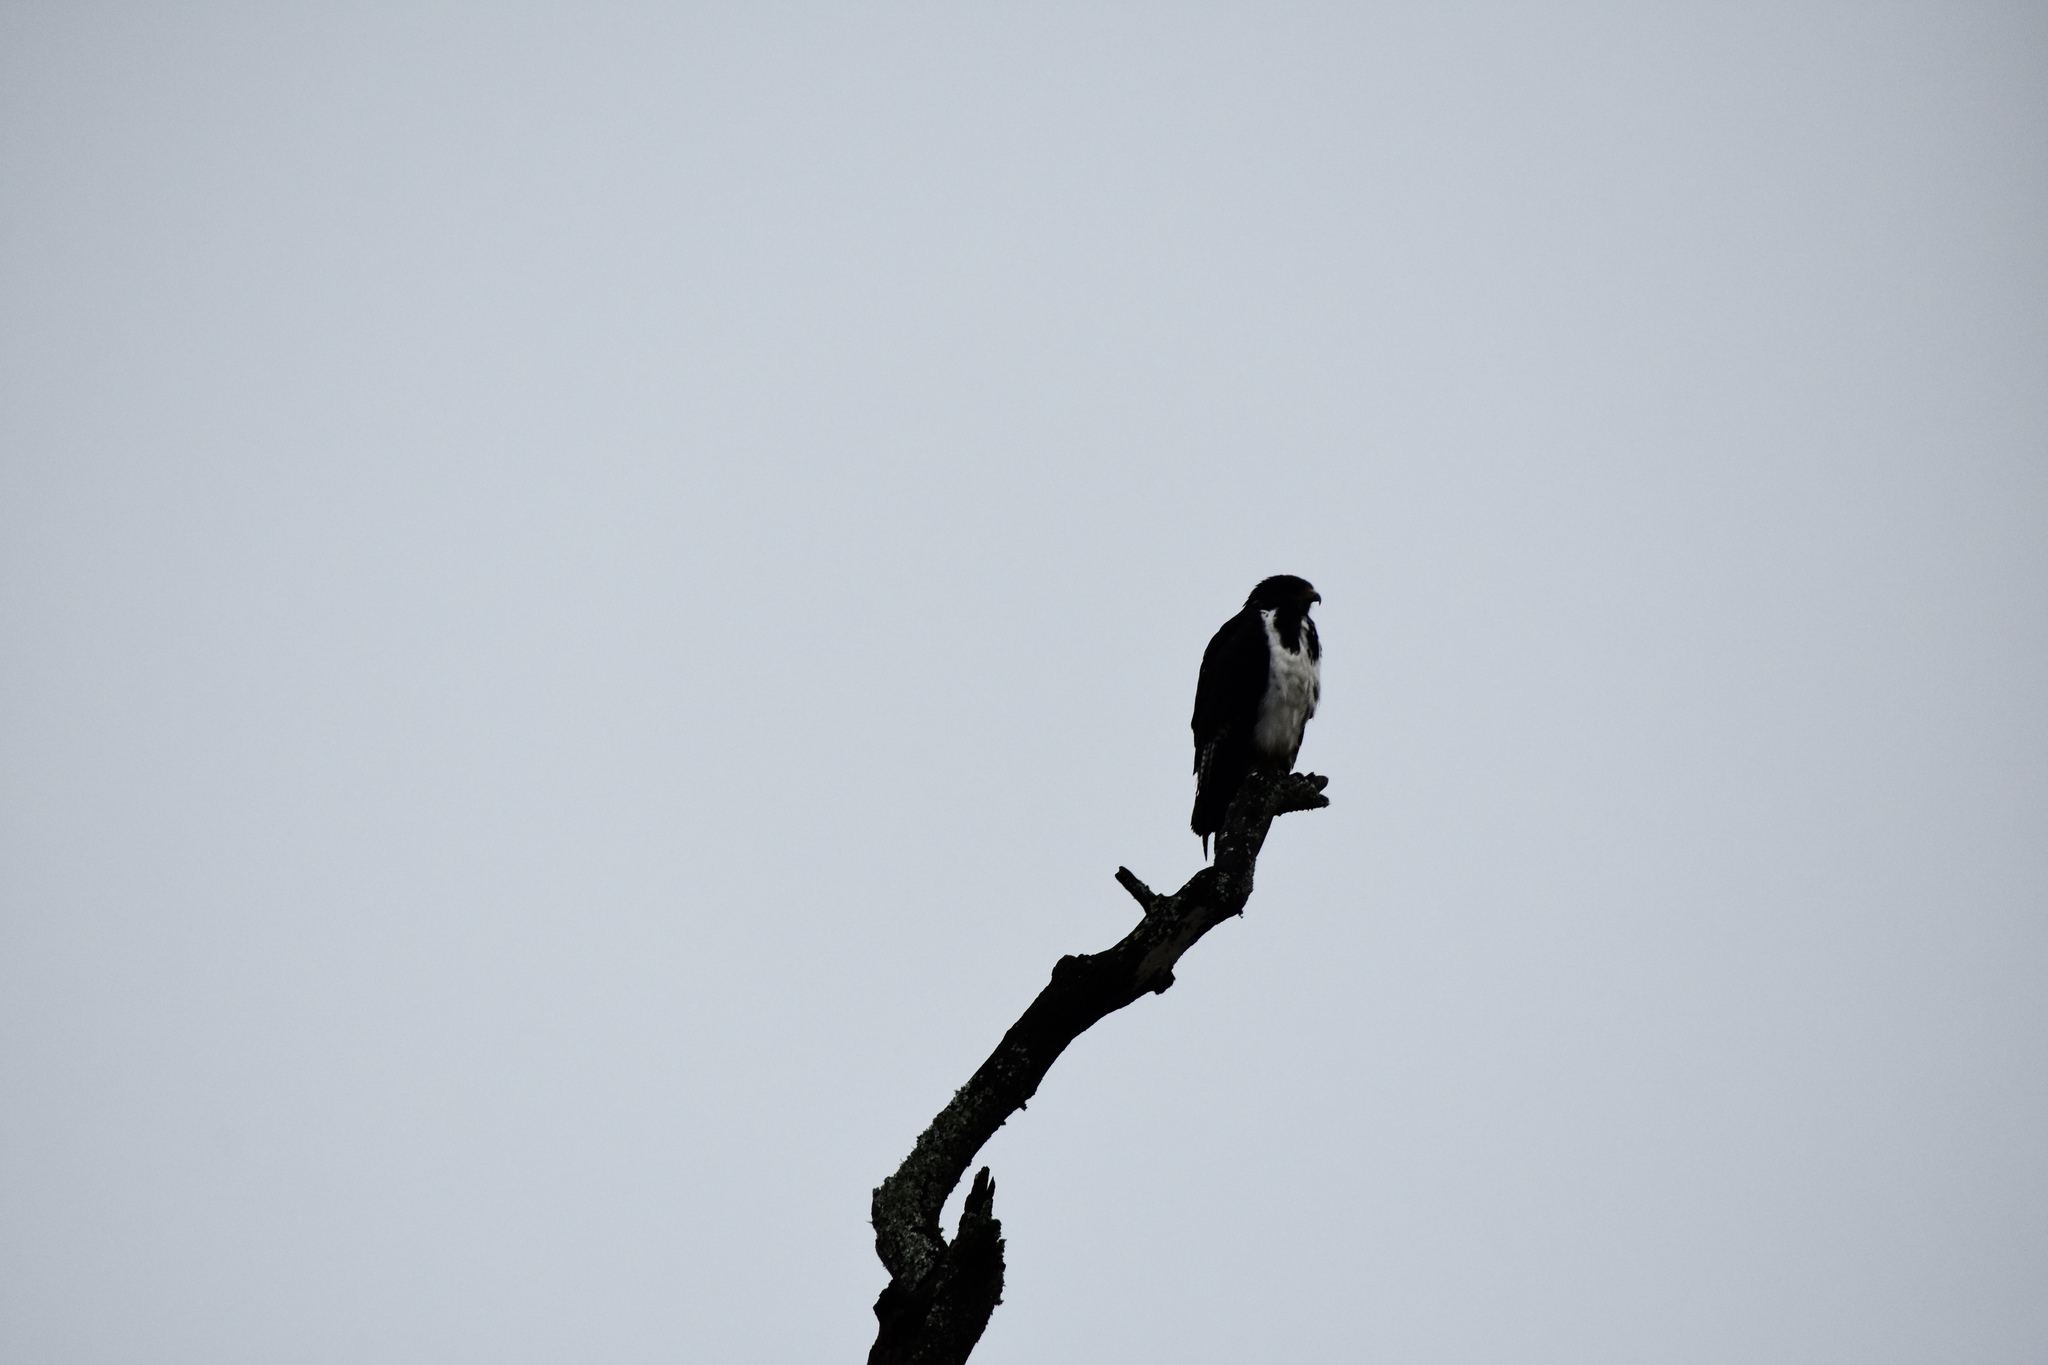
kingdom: Animalia
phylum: Chordata
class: Aves
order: Accipitriformes
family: Accipitridae
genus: Buteo
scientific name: Buteo augur
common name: Augur buzzard
